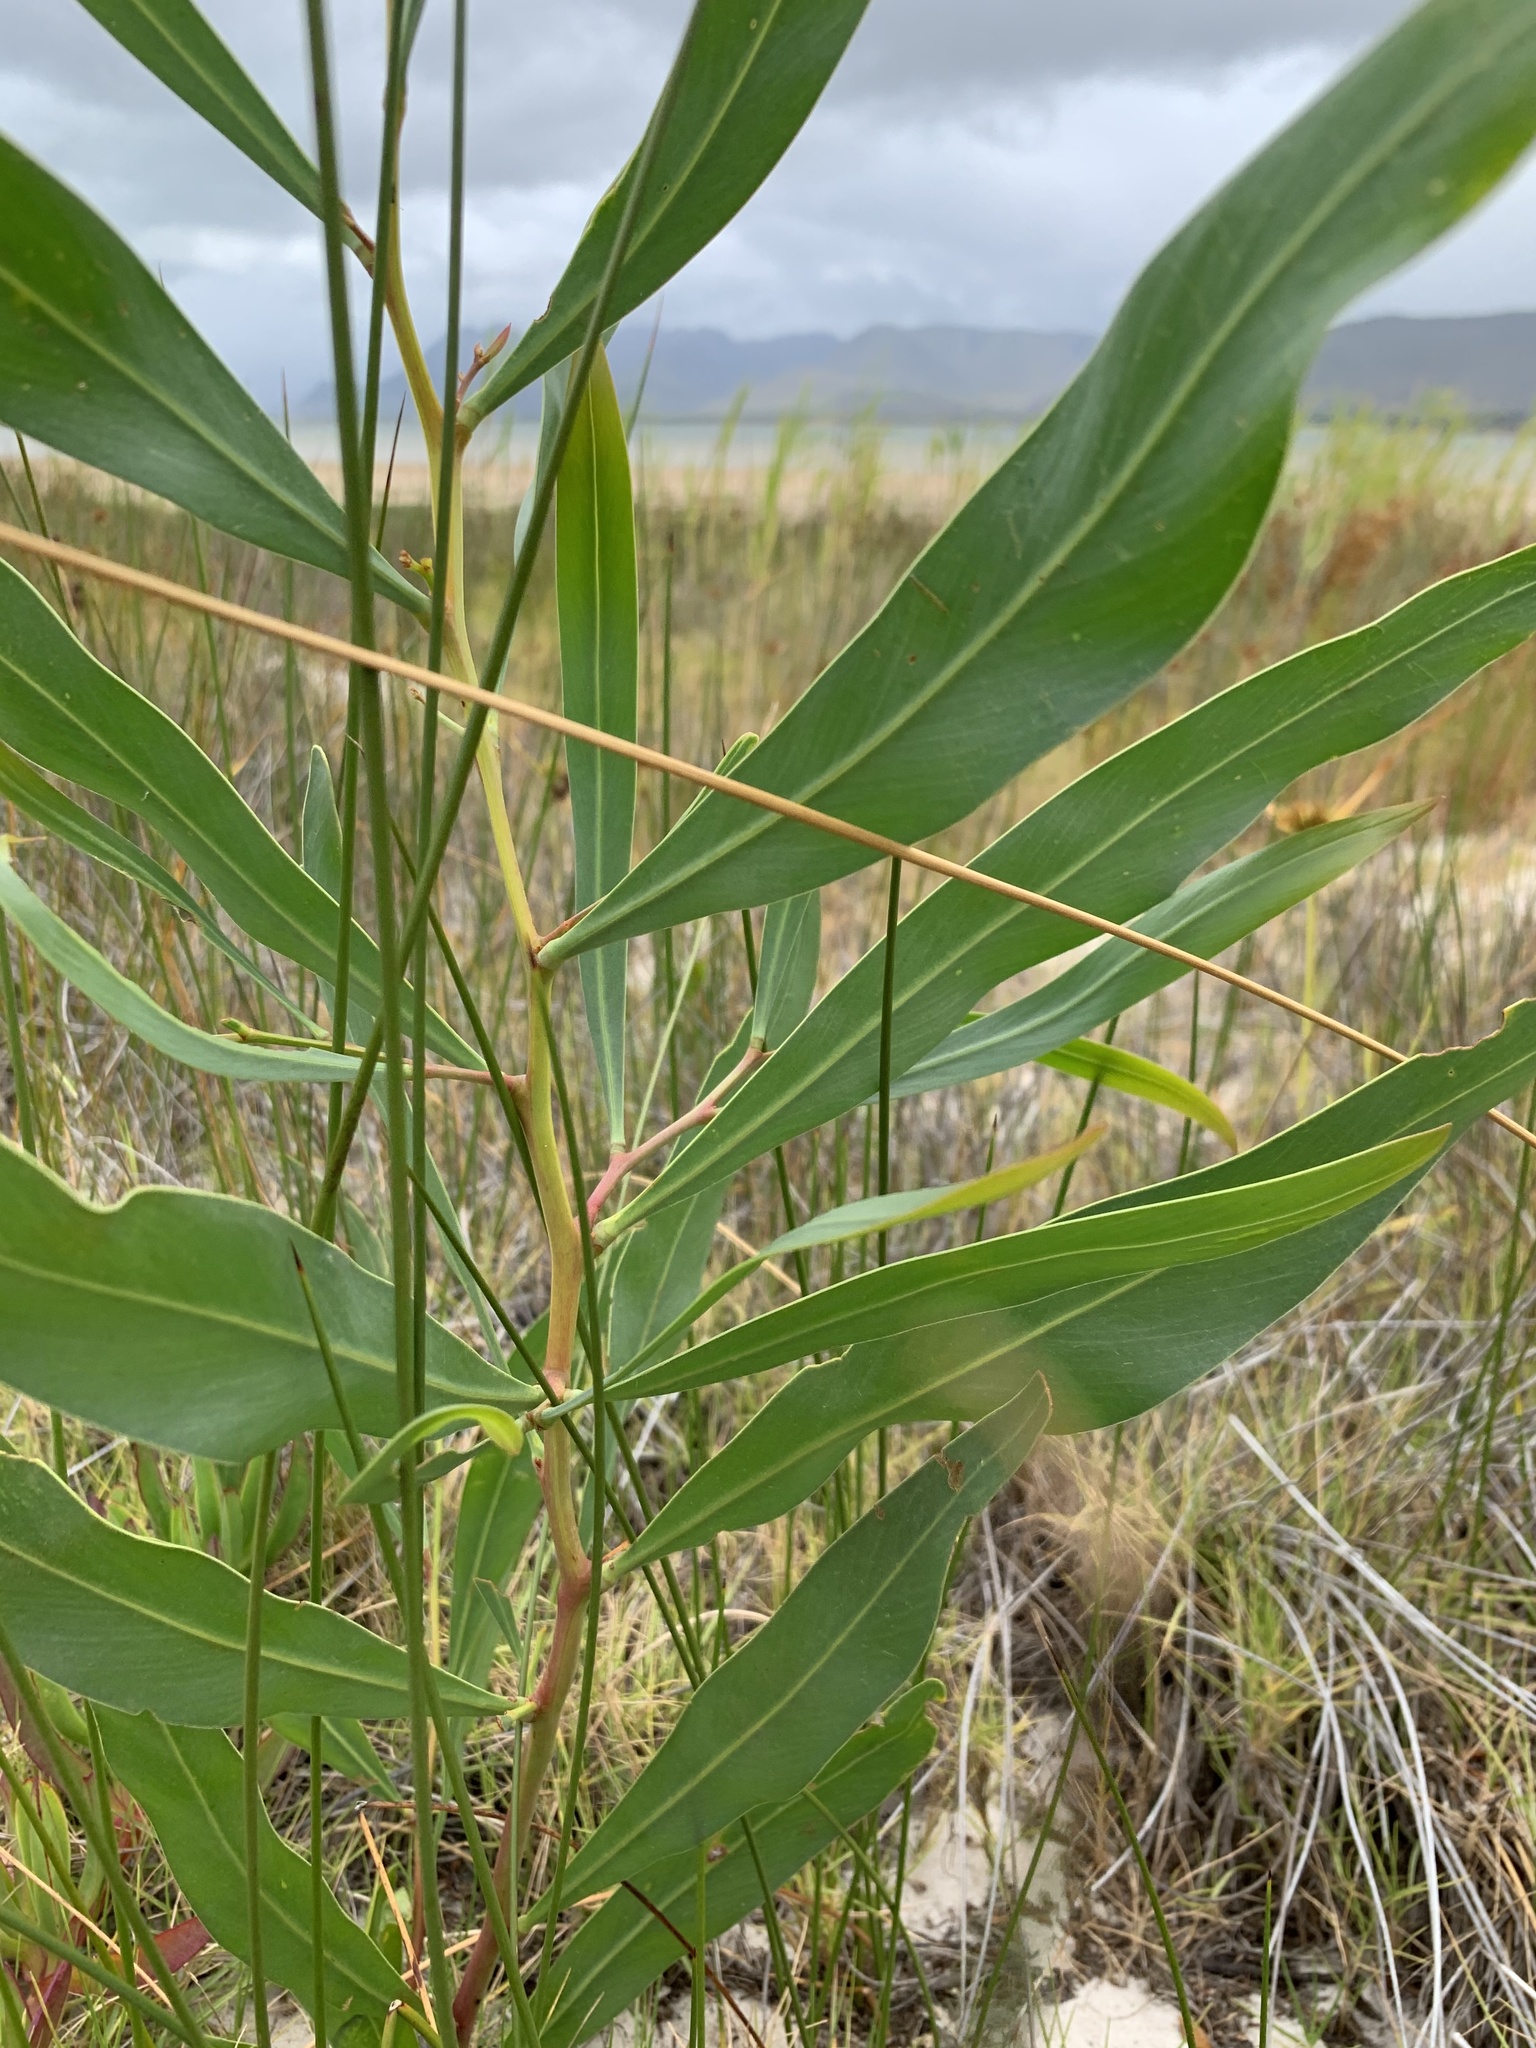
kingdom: Plantae
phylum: Tracheophyta
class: Magnoliopsida
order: Fabales
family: Fabaceae
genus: Acacia
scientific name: Acacia saligna
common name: Orange wattle
